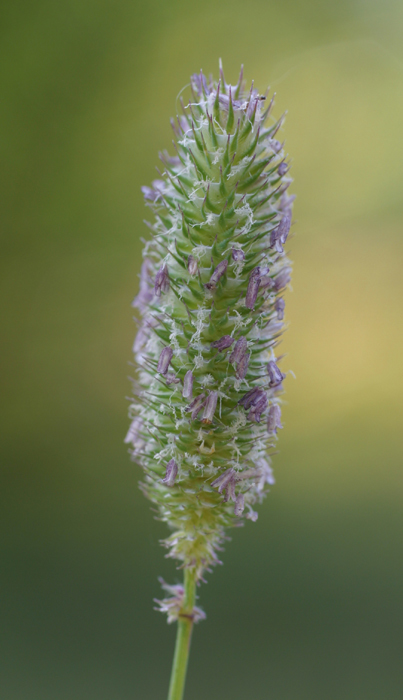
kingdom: Plantae
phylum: Tracheophyta
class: Liliopsida
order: Poales
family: Poaceae
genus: Phleum
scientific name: Phleum pratense
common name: Timothy grass
